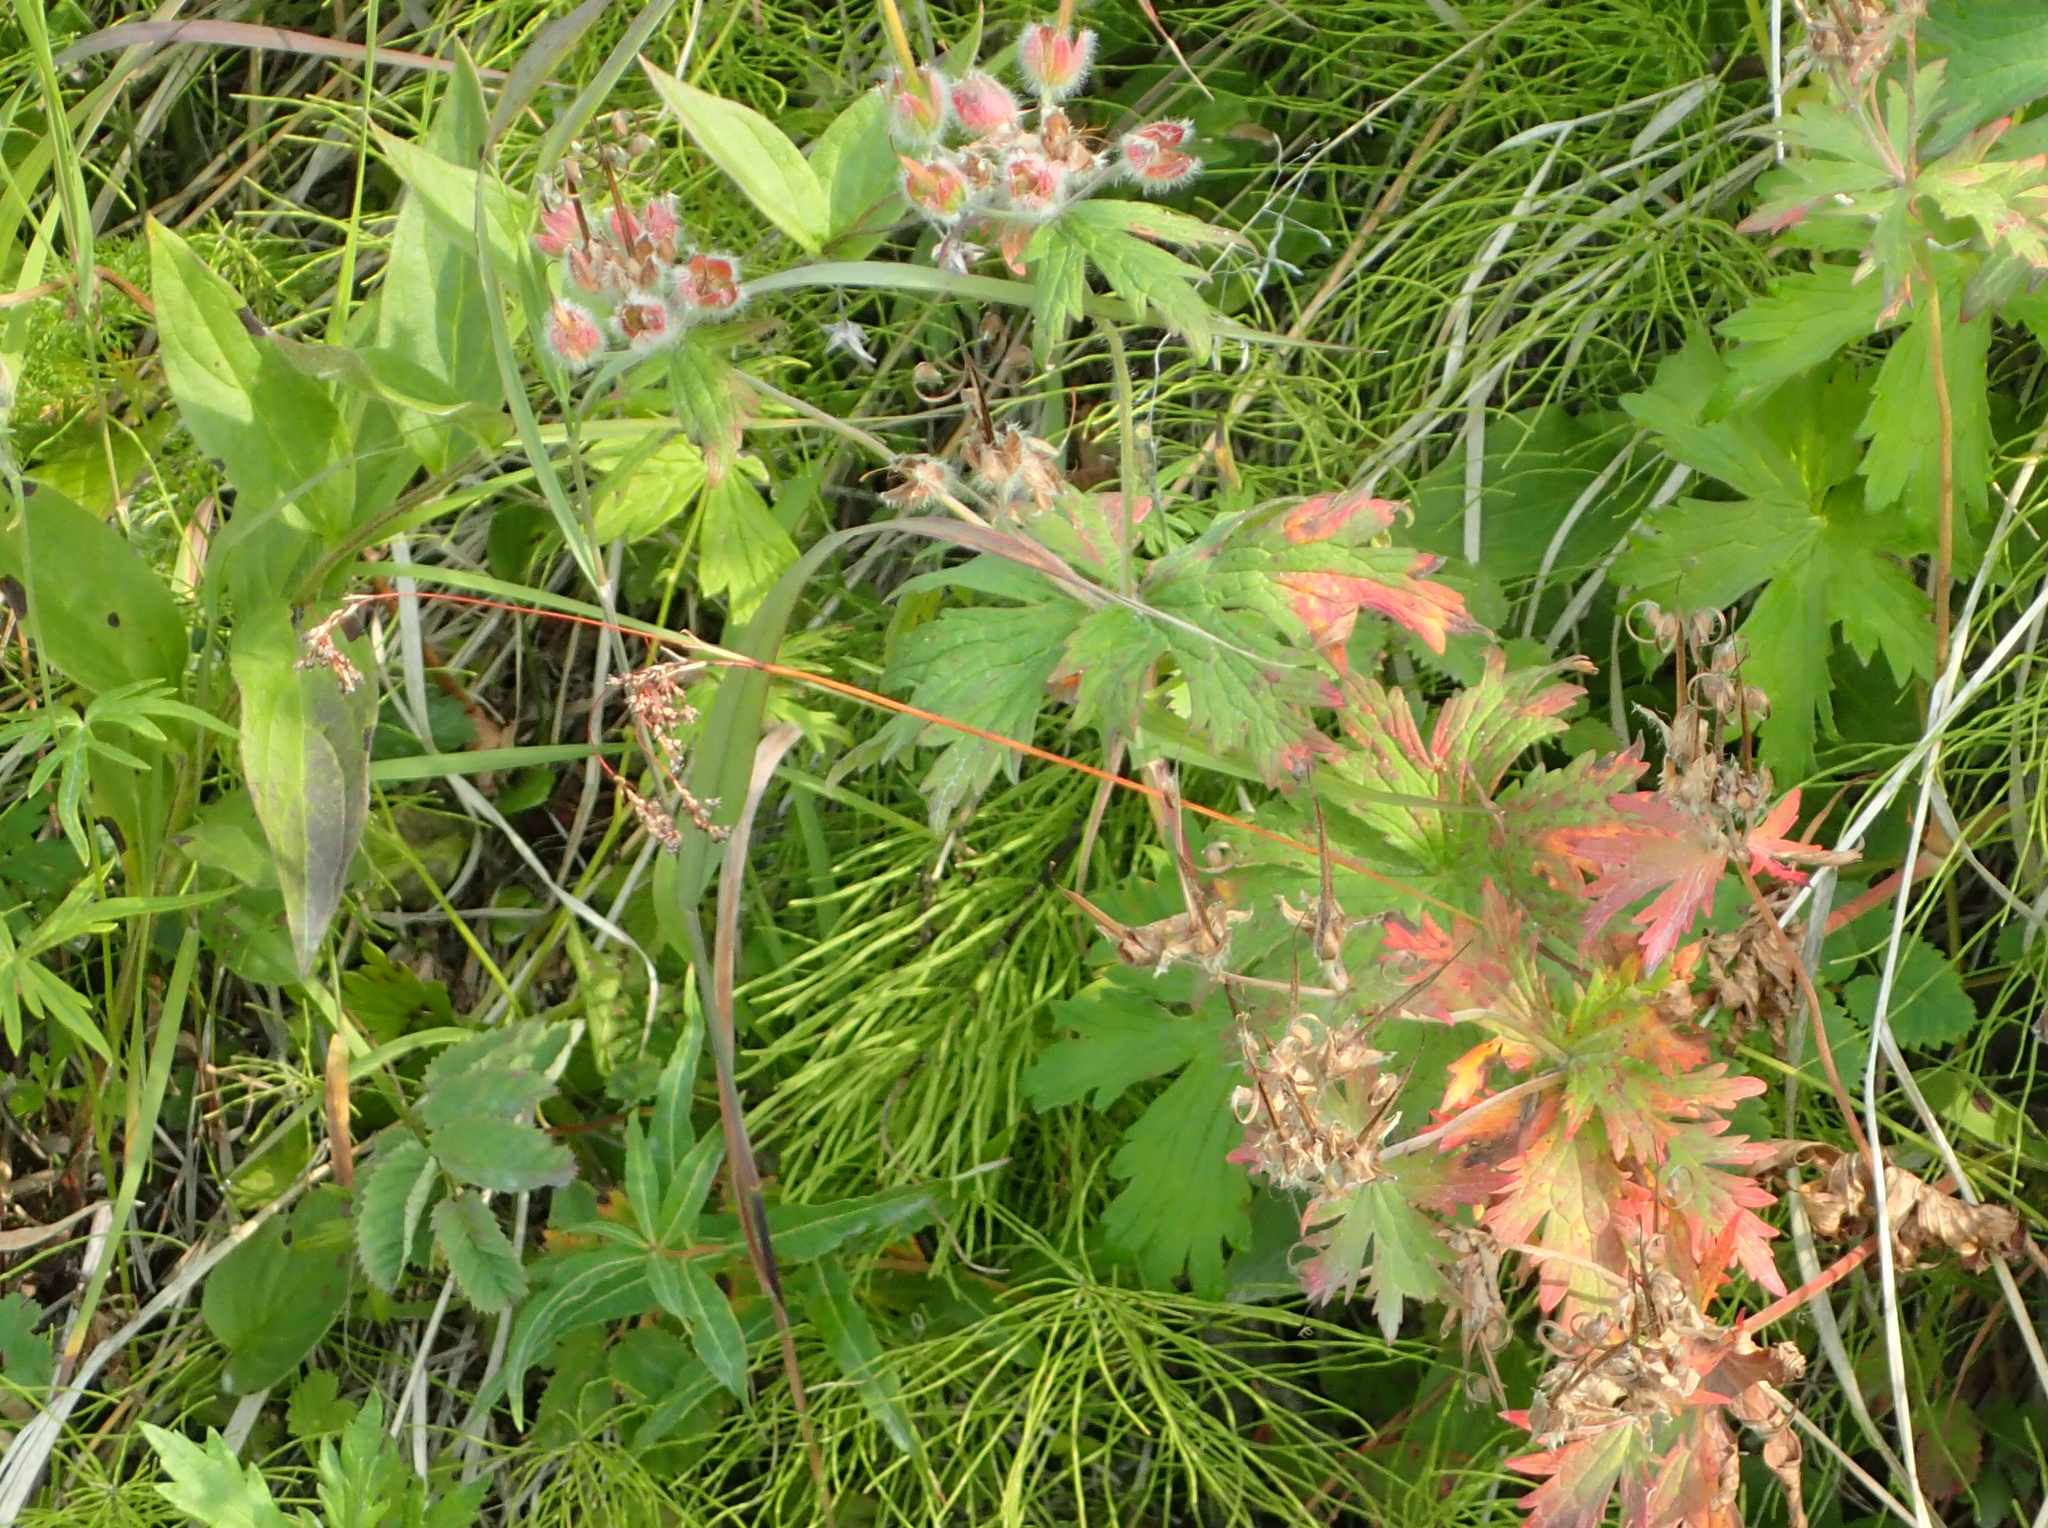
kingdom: Plantae
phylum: Tracheophyta
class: Magnoliopsida
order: Geraniales
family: Geraniaceae
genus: Geranium
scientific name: Geranium erianthum
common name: Northern crane's-bill
